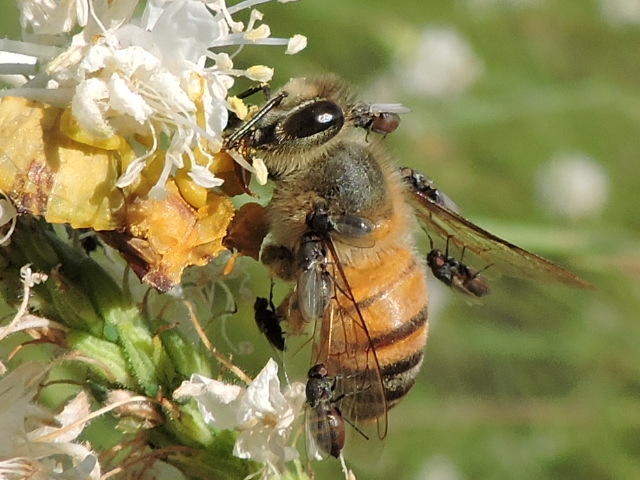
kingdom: Animalia
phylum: Arthropoda
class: Insecta
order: Hymenoptera
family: Apidae
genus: Apis
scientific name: Apis mellifera
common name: Honey bee
